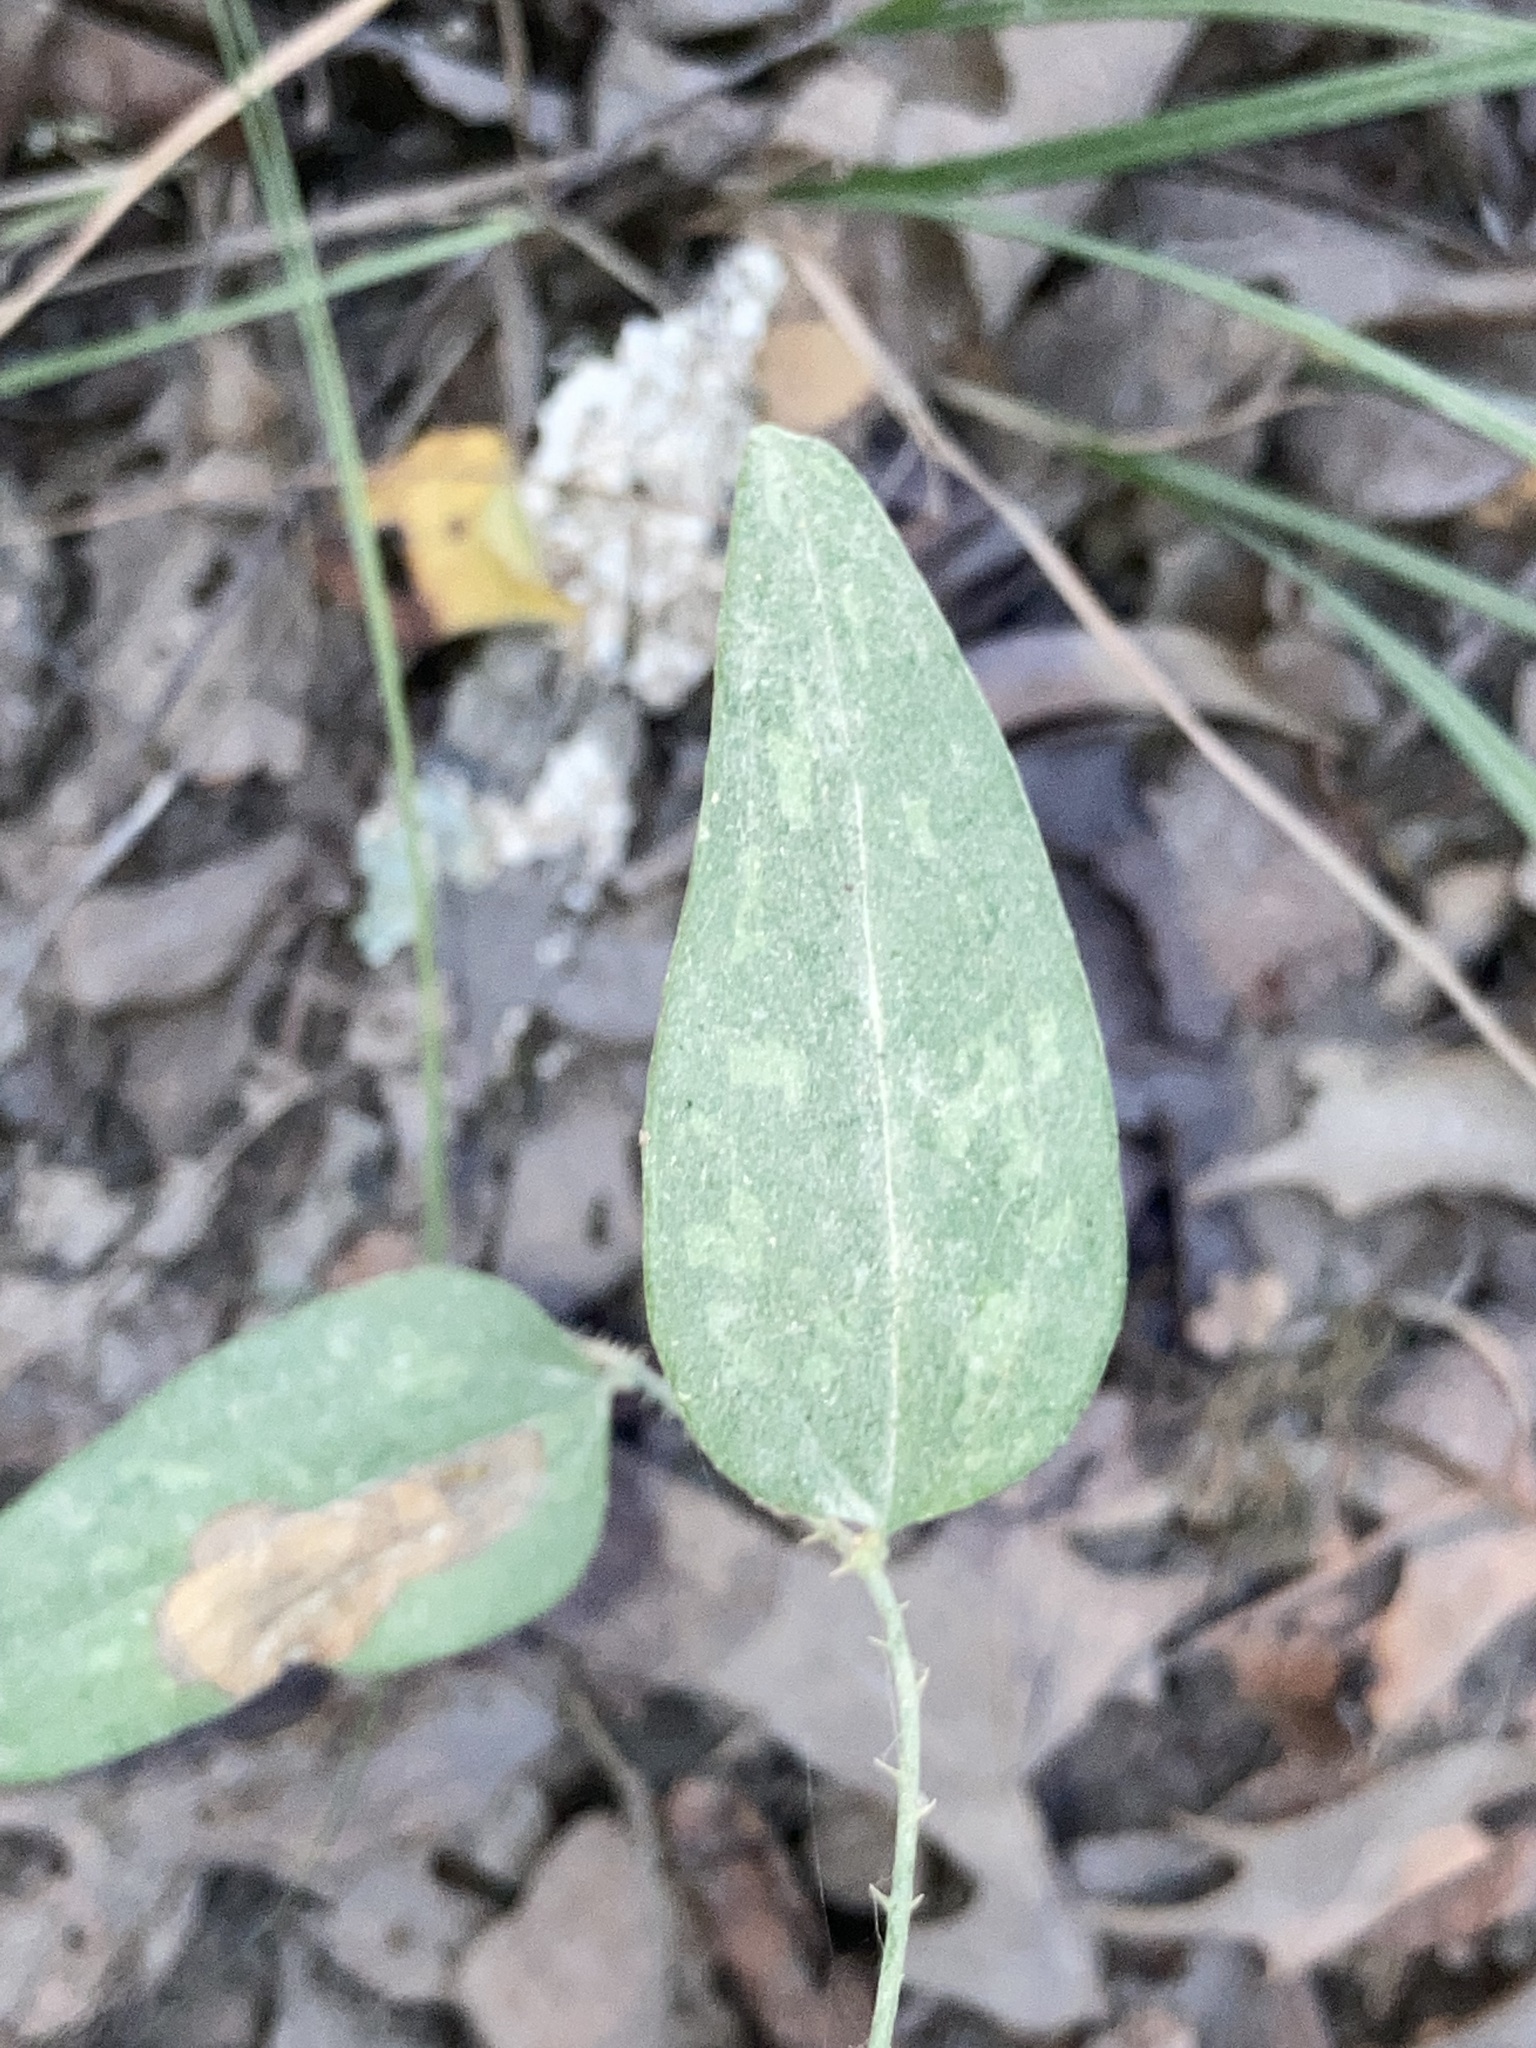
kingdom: Plantae
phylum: Tracheophyta
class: Liliopsida
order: Liliales
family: Smilacaceae
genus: Smilax
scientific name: Smilax glauca
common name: Cat greenbrier
